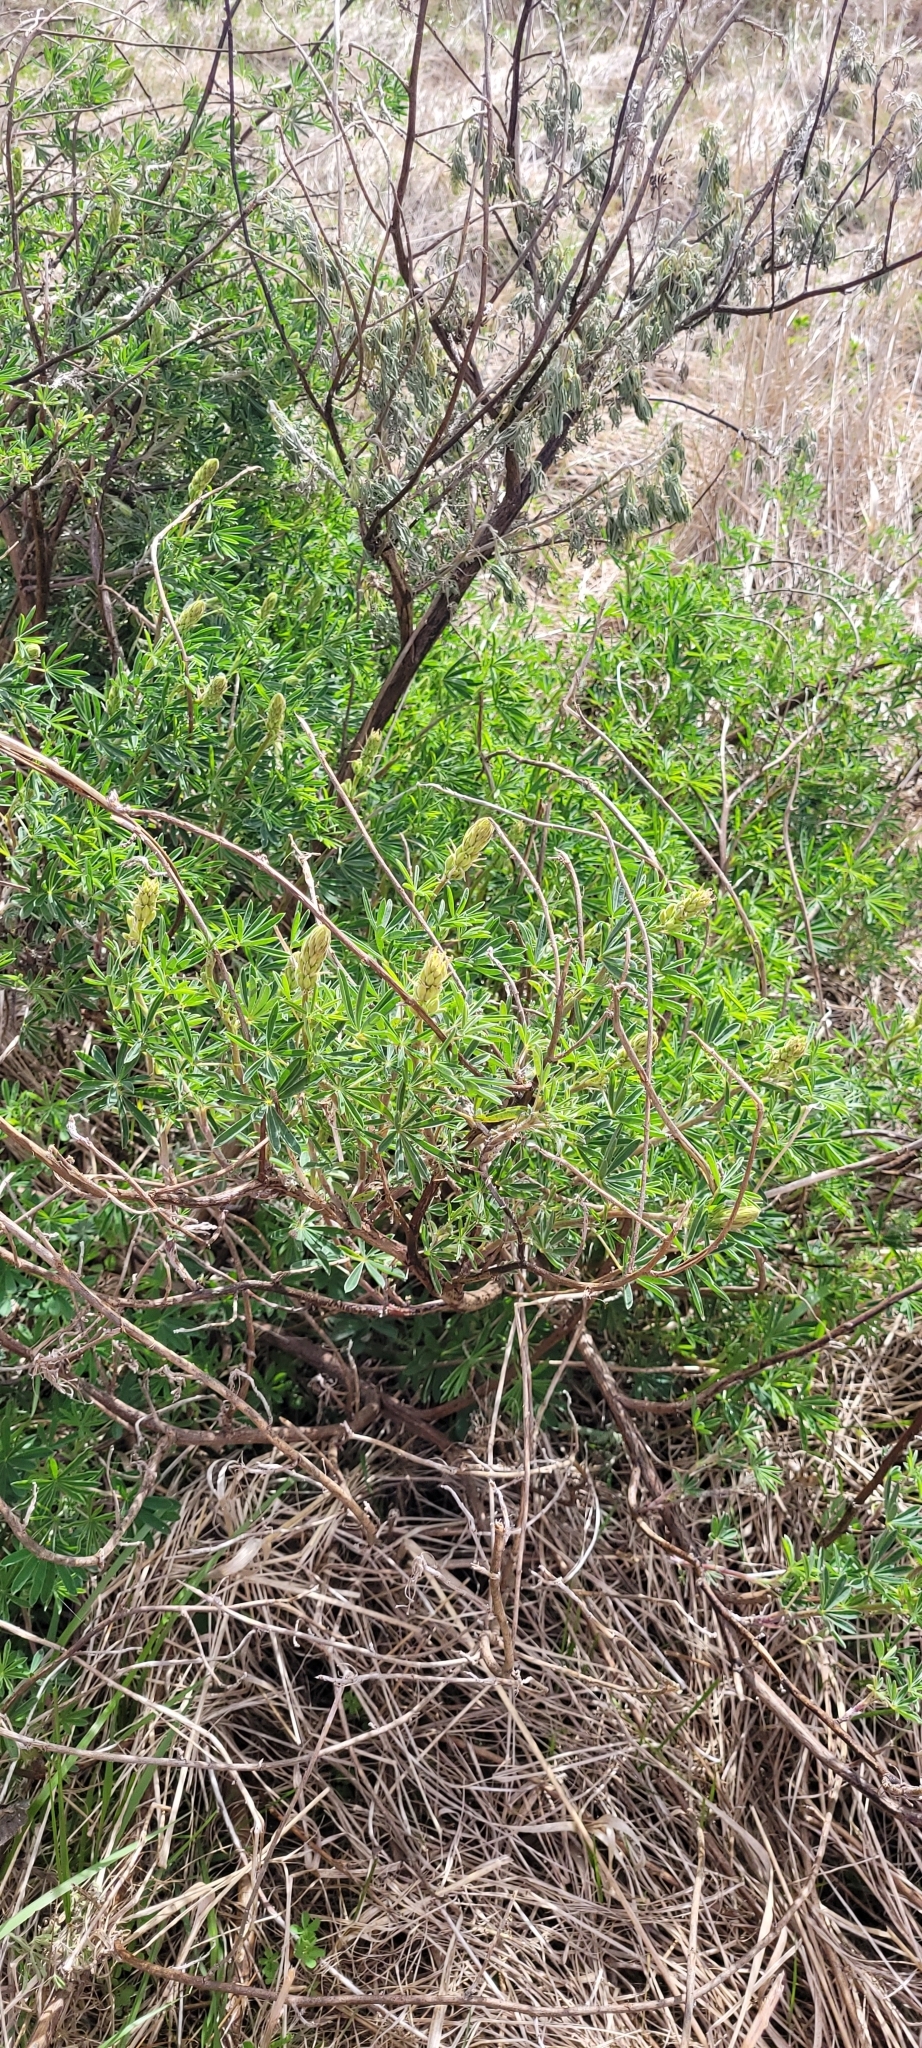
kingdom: Plantae
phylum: Tracheophyta
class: Magnoliopsida
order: Fabales
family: Fabaceae
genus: Lupinus
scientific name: Lupinus arboreus
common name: Yellow bush lupine
